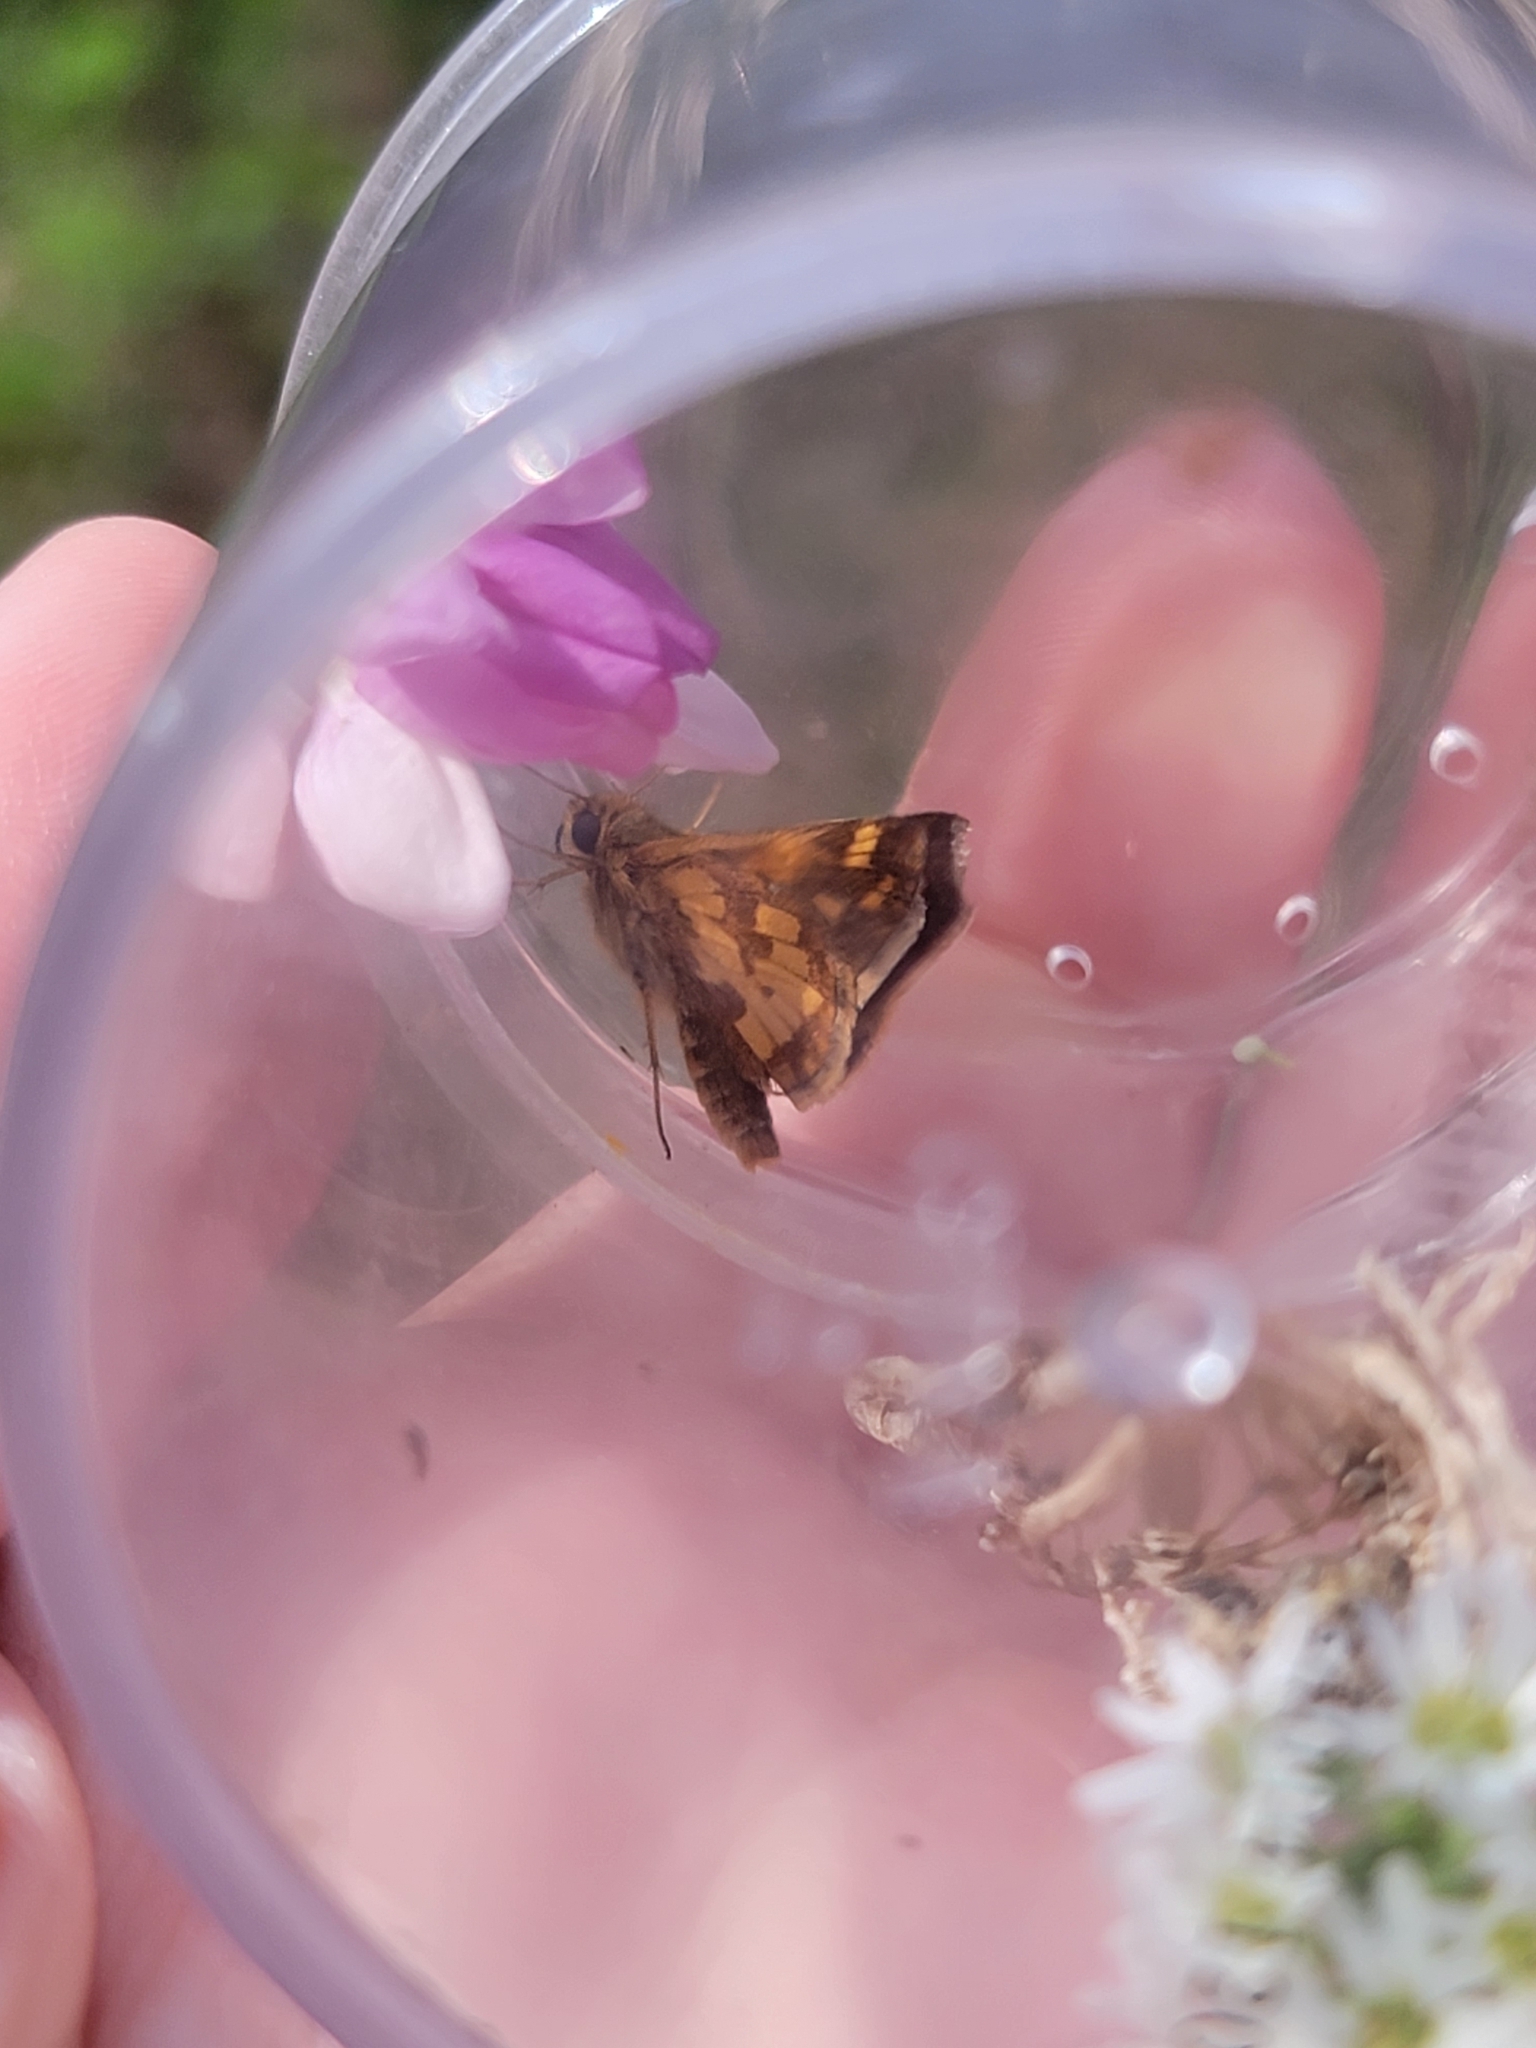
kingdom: Animalia
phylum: Arthropoda
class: Insecta
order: Lepidoptera
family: Hesperiidae
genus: Polites
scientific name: Polites coras
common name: Peck's skipper
